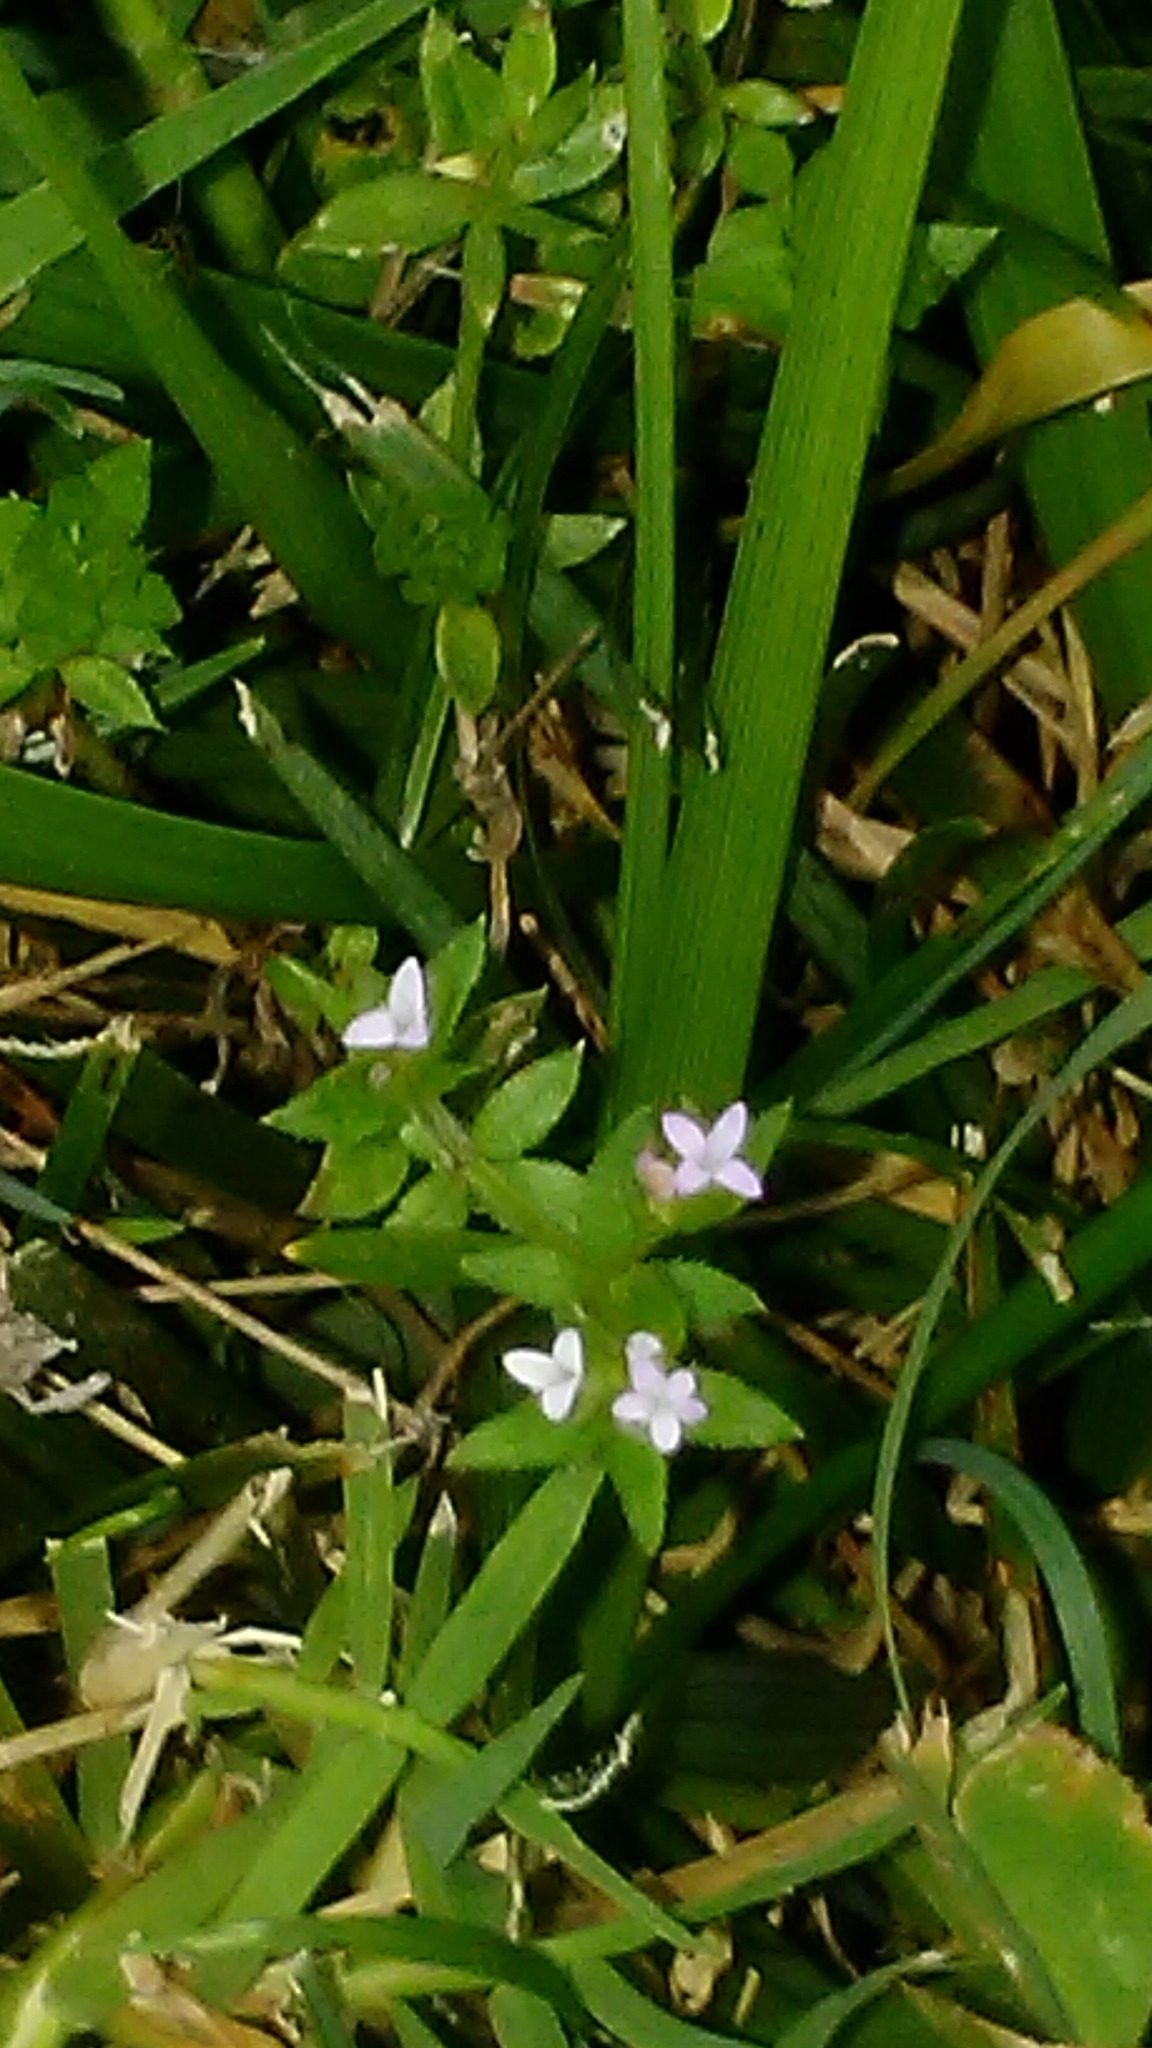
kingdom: Plantae
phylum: Tracheophyta
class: Magnoliopsida
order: Gentianales
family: Rubiaceae
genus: Sherardia
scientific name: Sherardia arvensis
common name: Field madder
